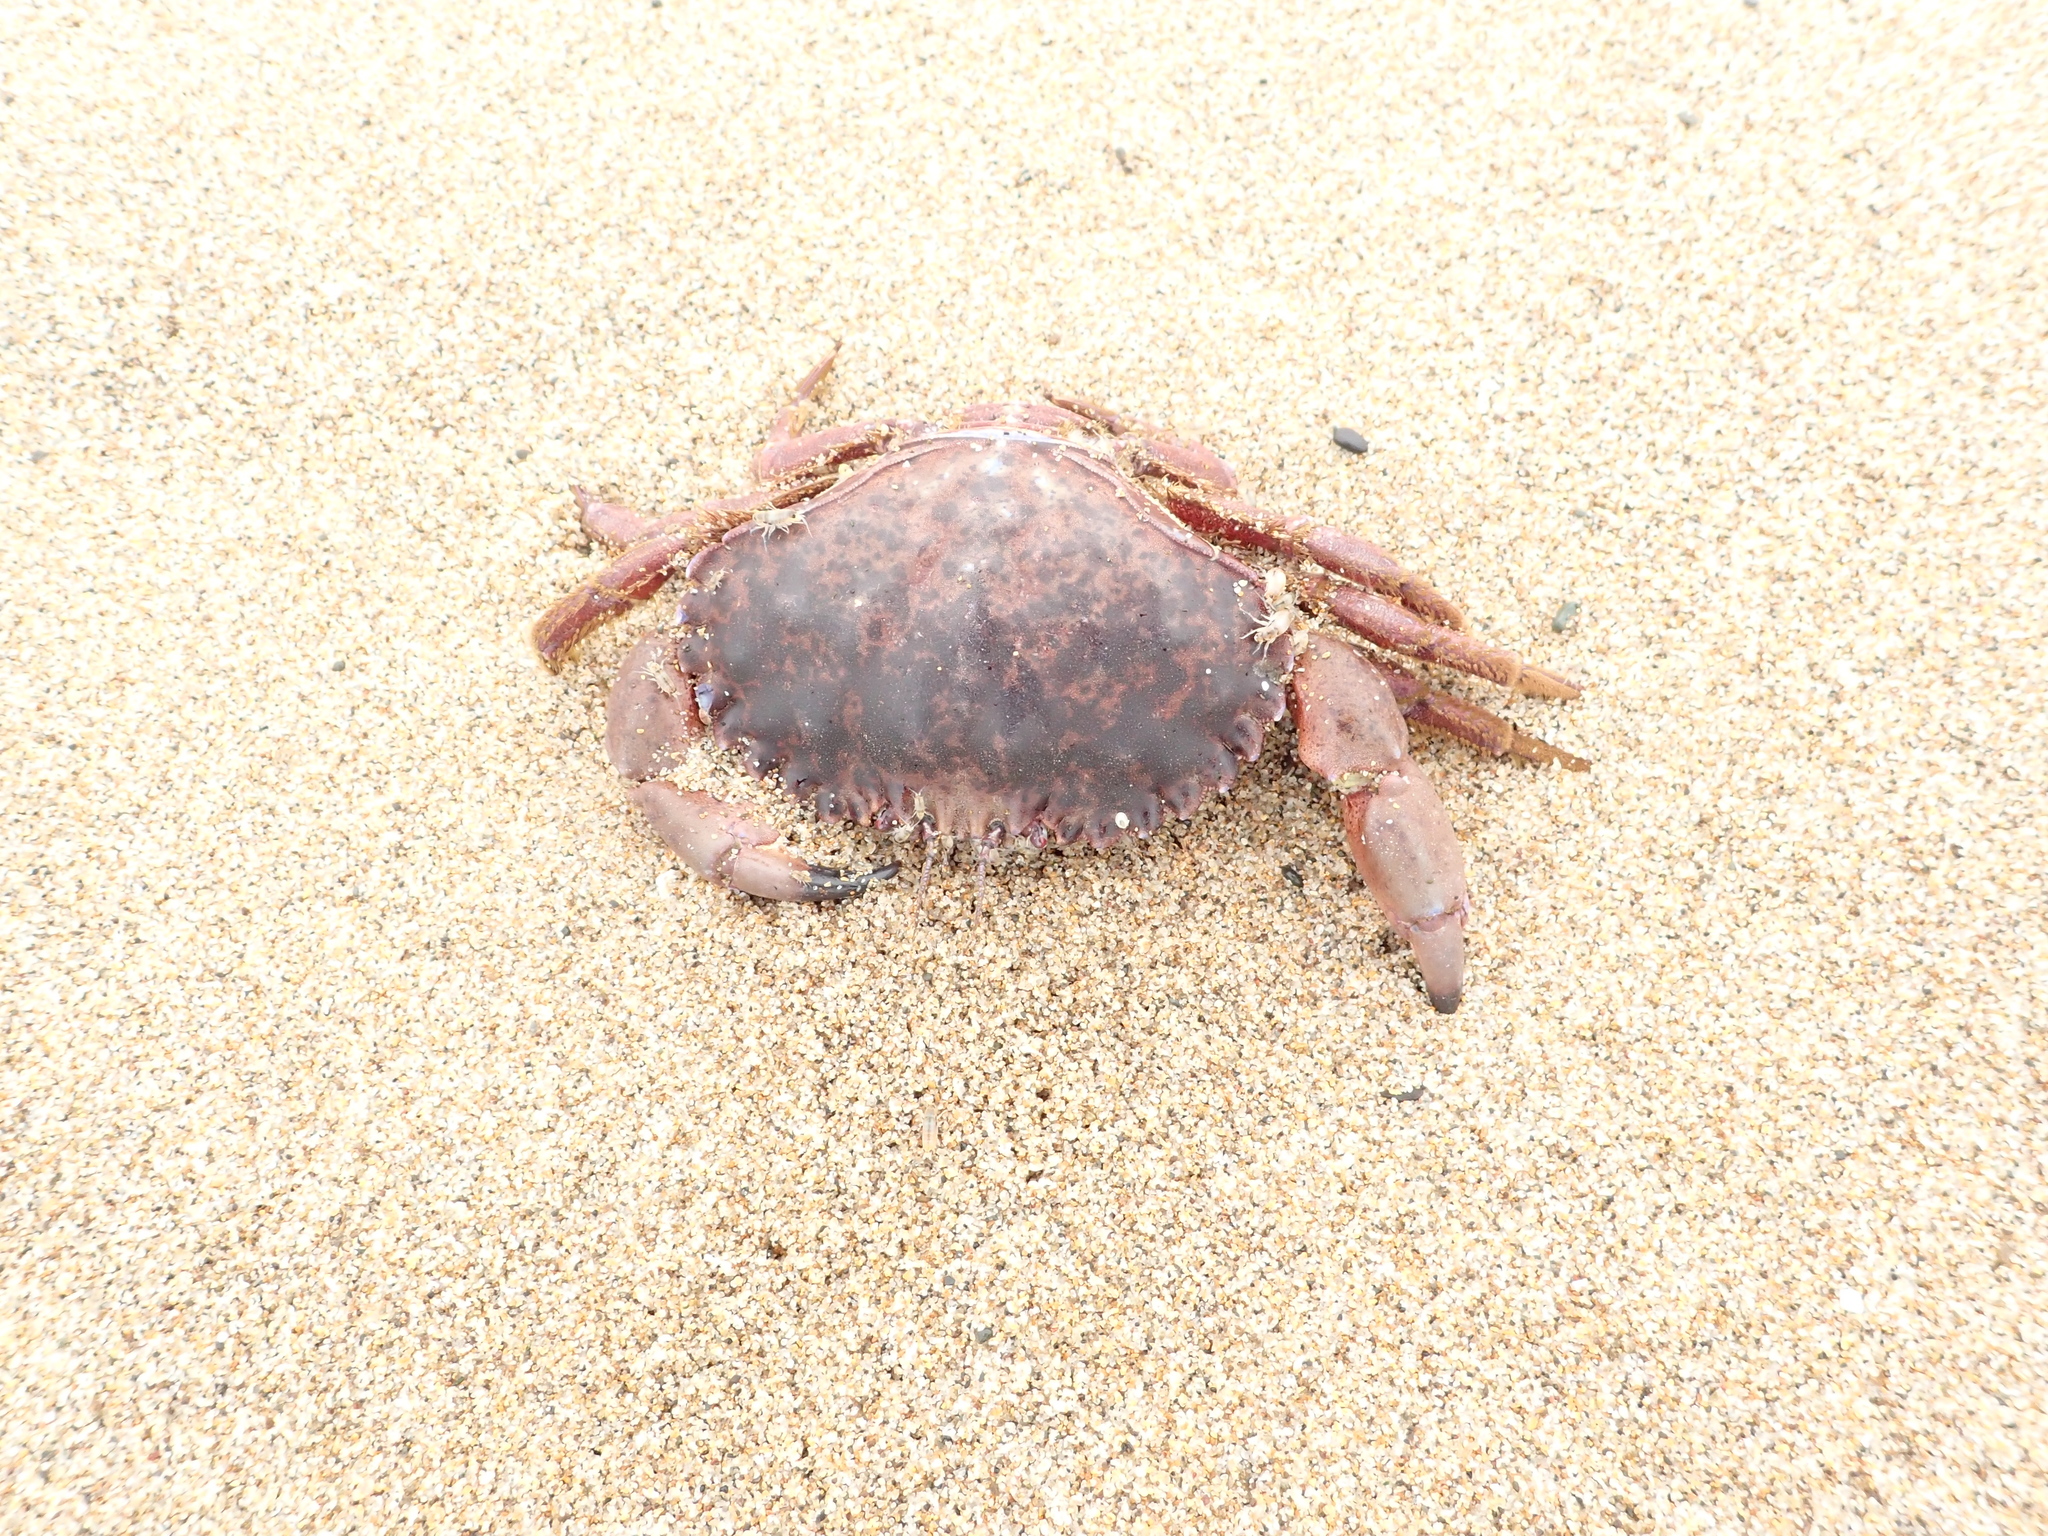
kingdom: Animalia
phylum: Arthropoda
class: Malacostraca
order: Decapoda
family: Cancridae
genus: Romaleon
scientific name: Romaleon antennarium
